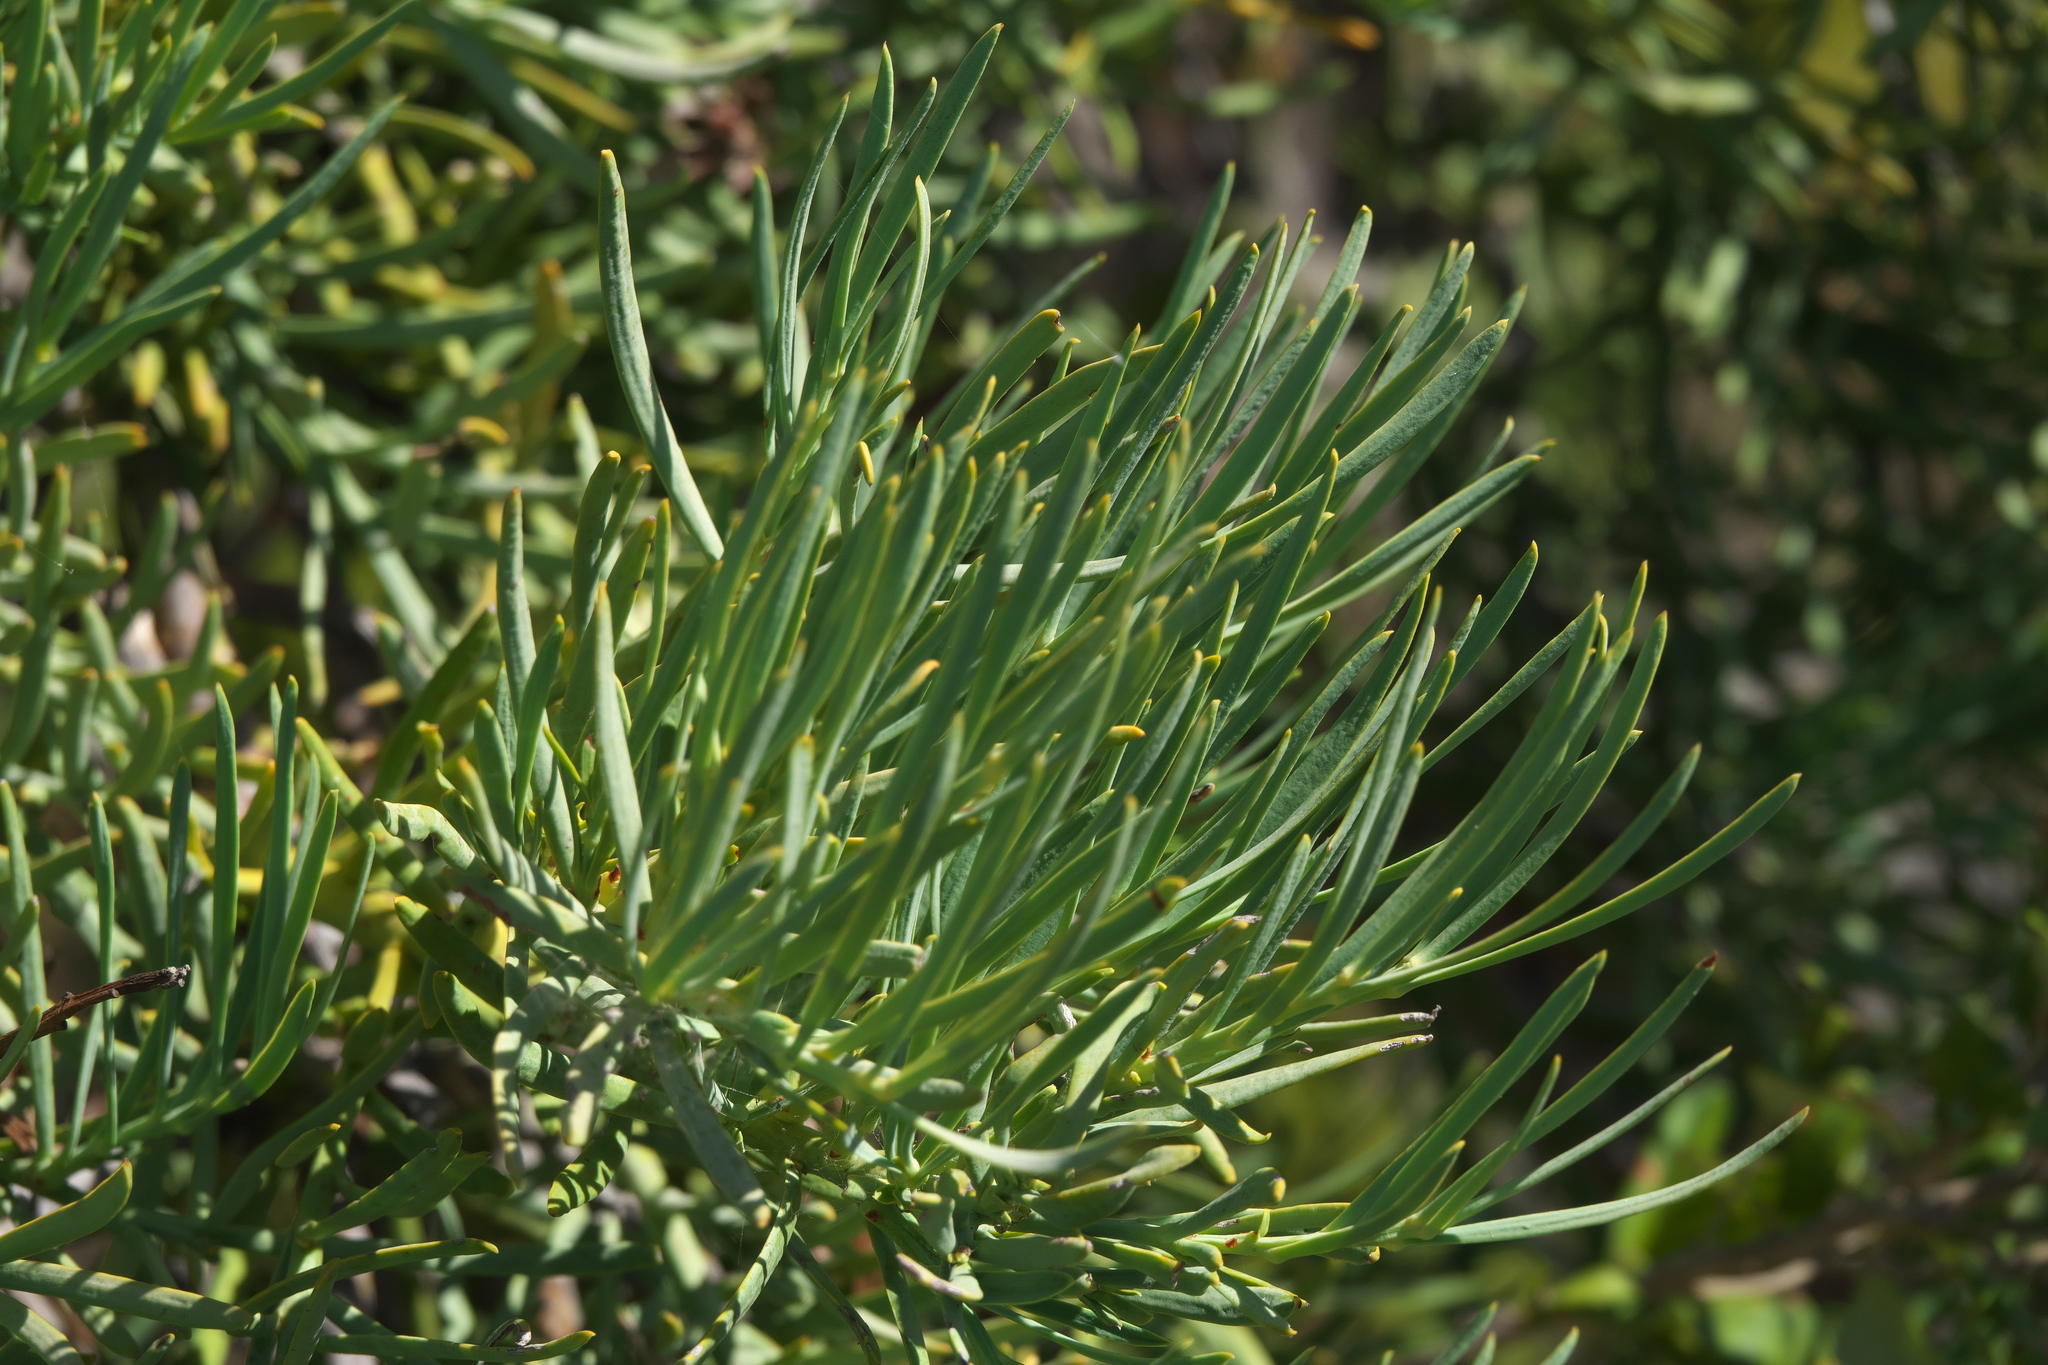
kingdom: Plantae
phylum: Tracheophyta
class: Magnoliopsida
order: Santalales
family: Loranthaceae
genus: Nuytsia
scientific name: Nuytsia floribunda
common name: Western australian christmastree
